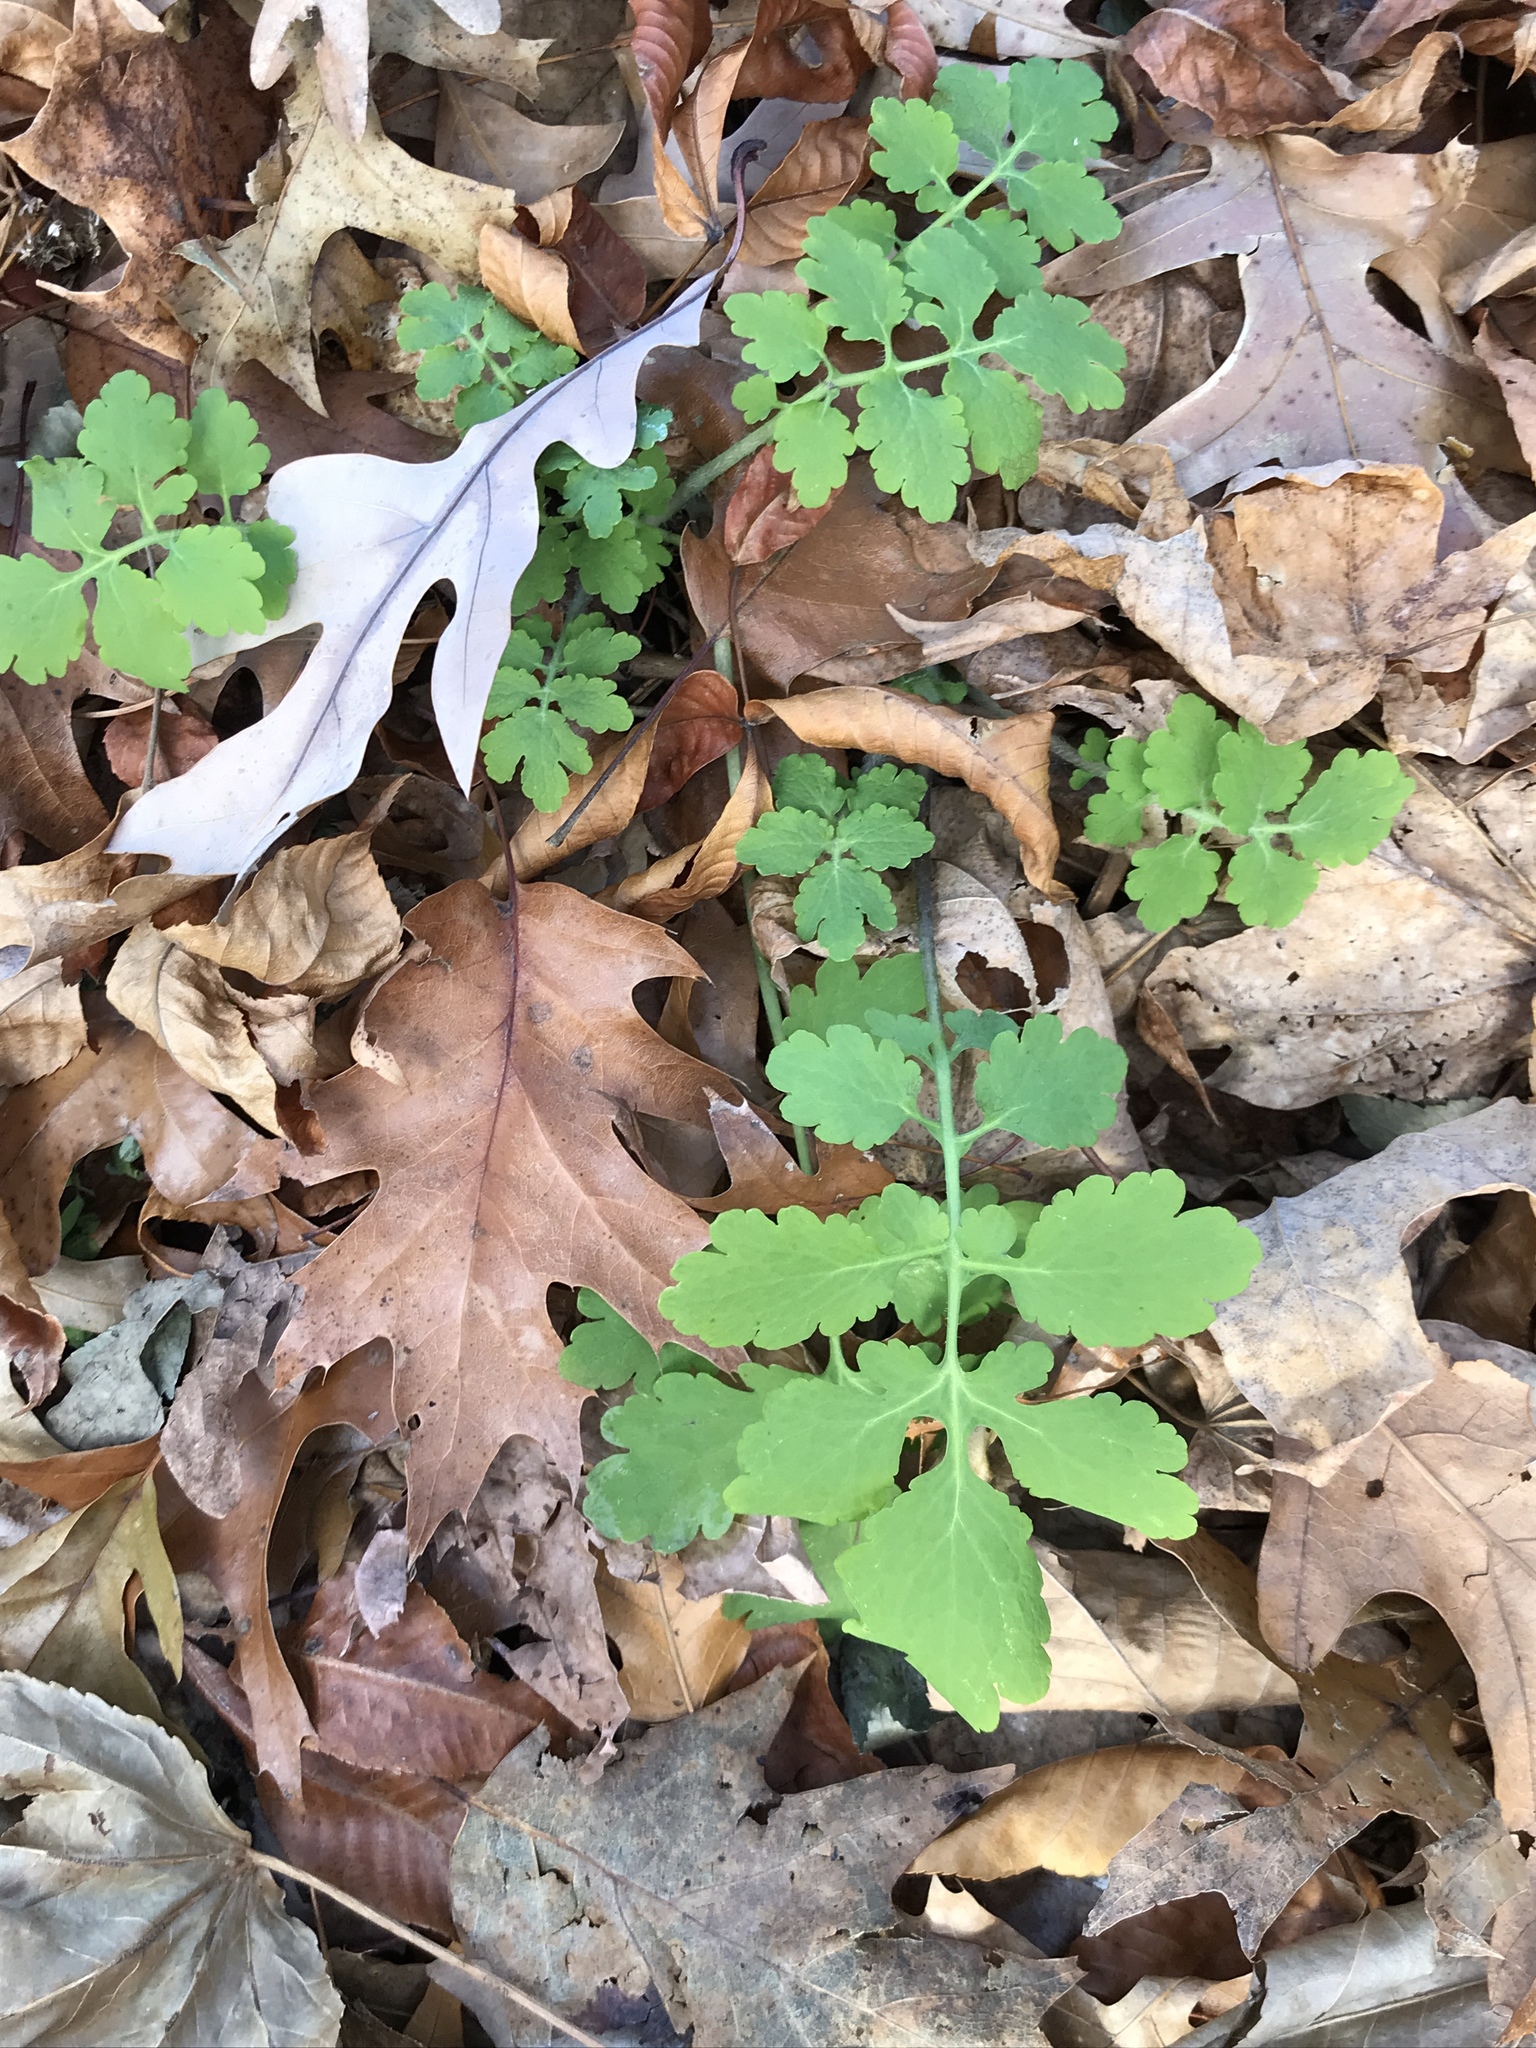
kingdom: Plantae
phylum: Tracheophyta
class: Magnoliopsida
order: Ranunculales
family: Papaveraceae
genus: Chelidonium
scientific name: Chelidonium majus
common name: Greater celandine
